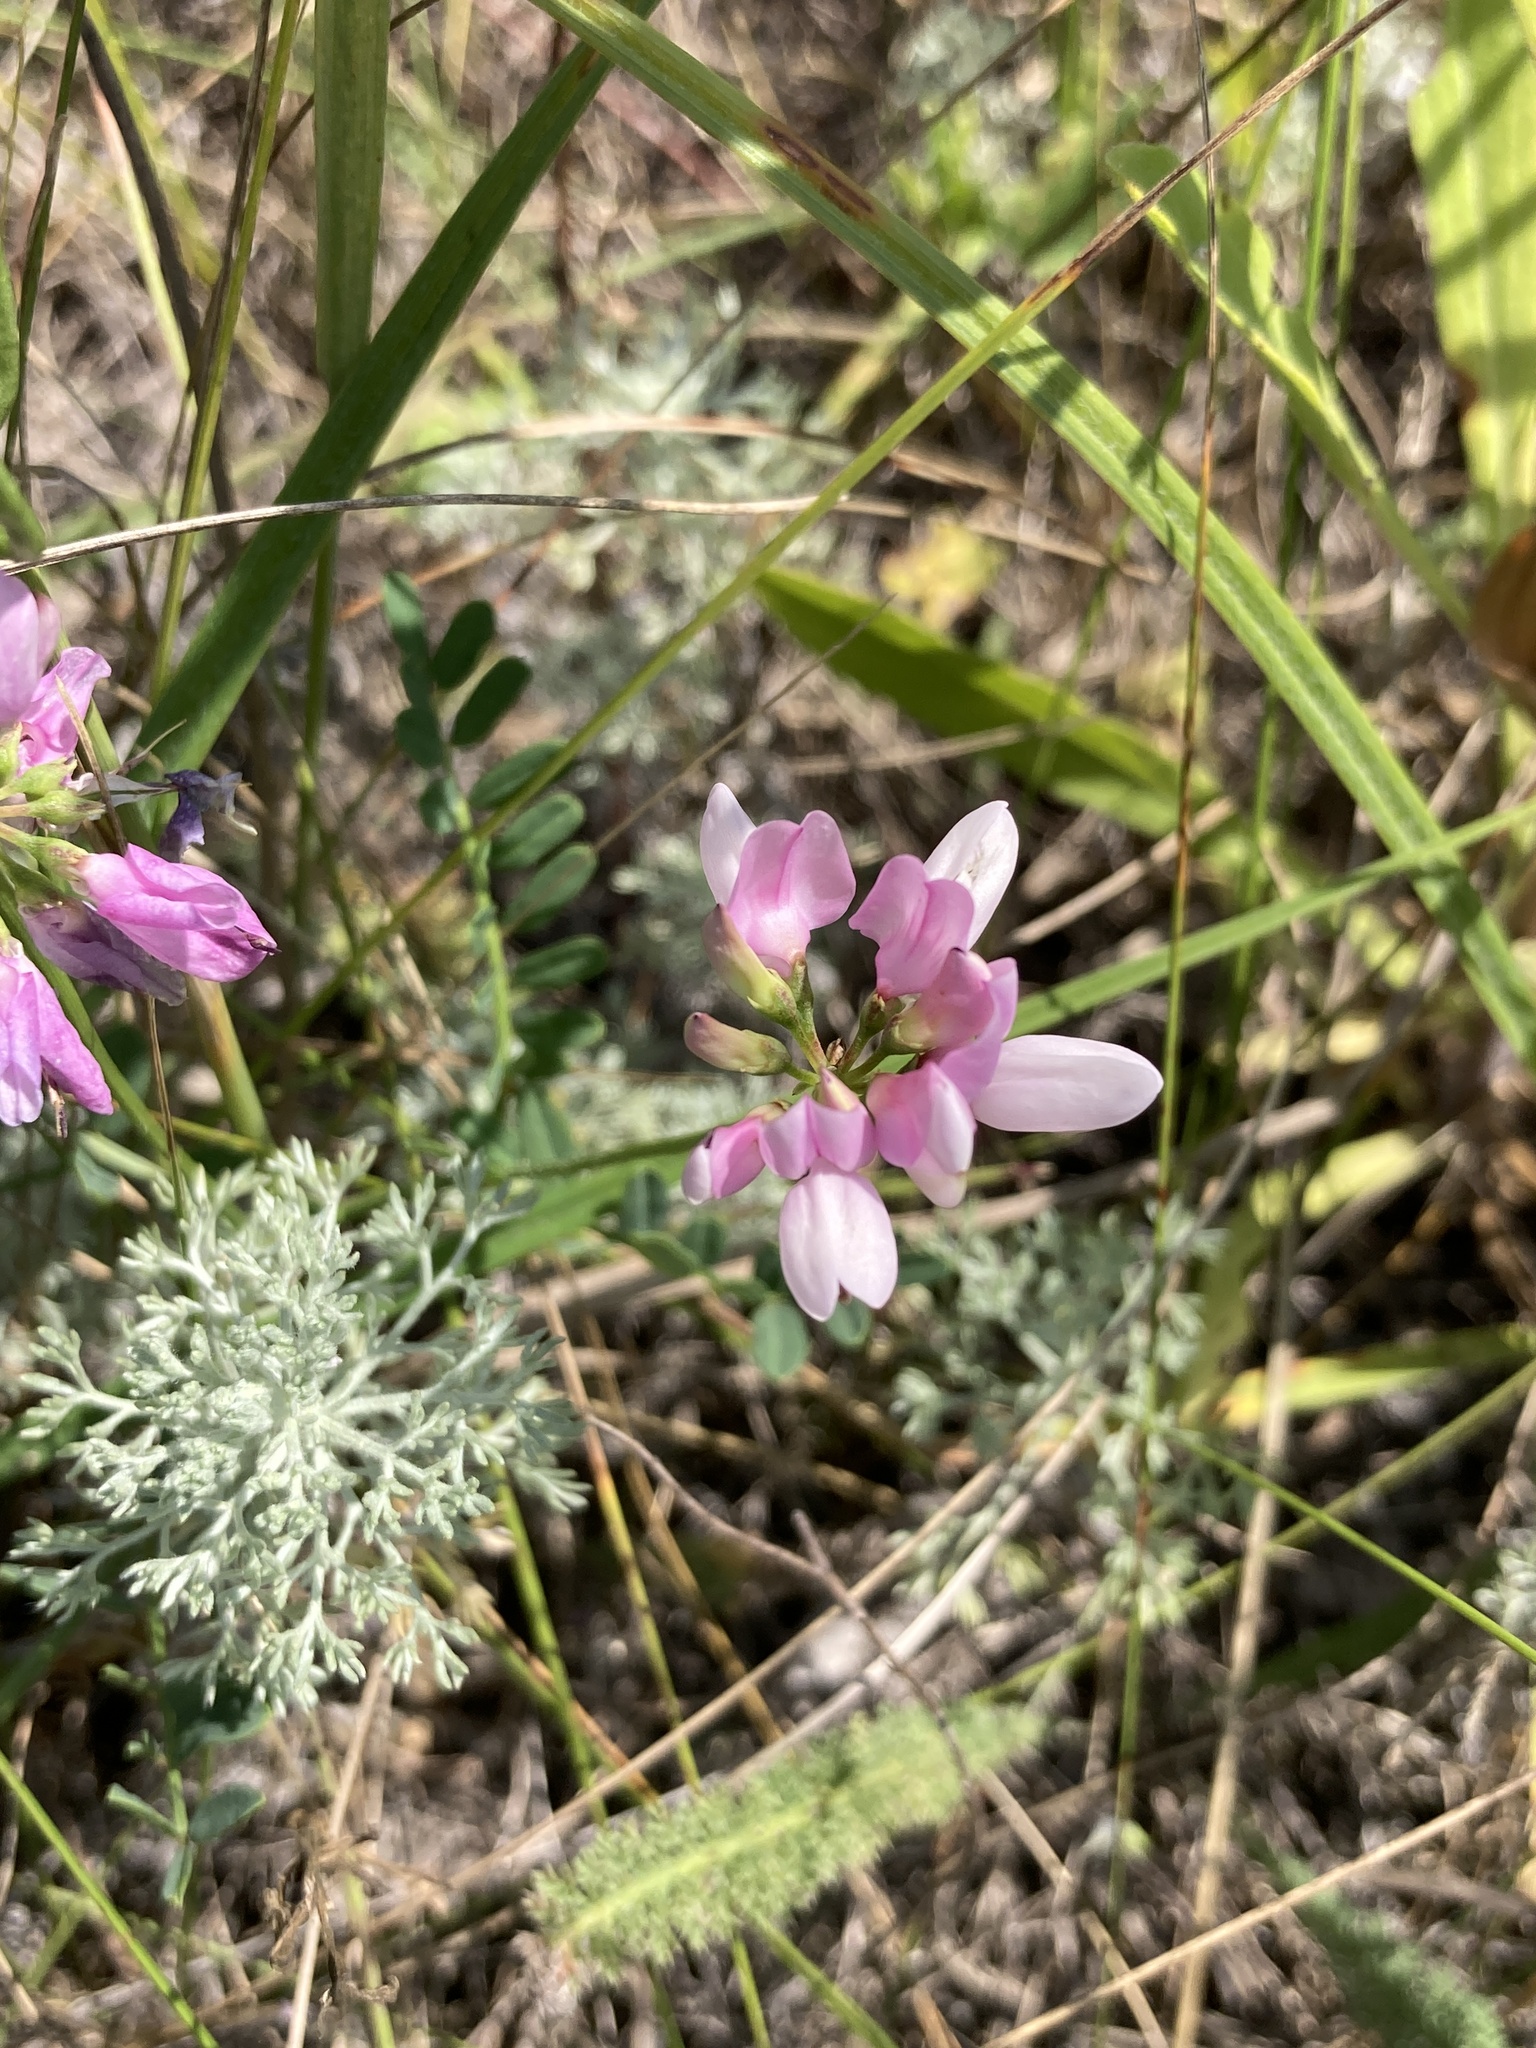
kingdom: Plantae
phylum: Tracheophyta
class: Magnoliopsida
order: Fabales
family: Fabaceae
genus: Coronilla
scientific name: Coronilla varia
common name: Crownvetch
